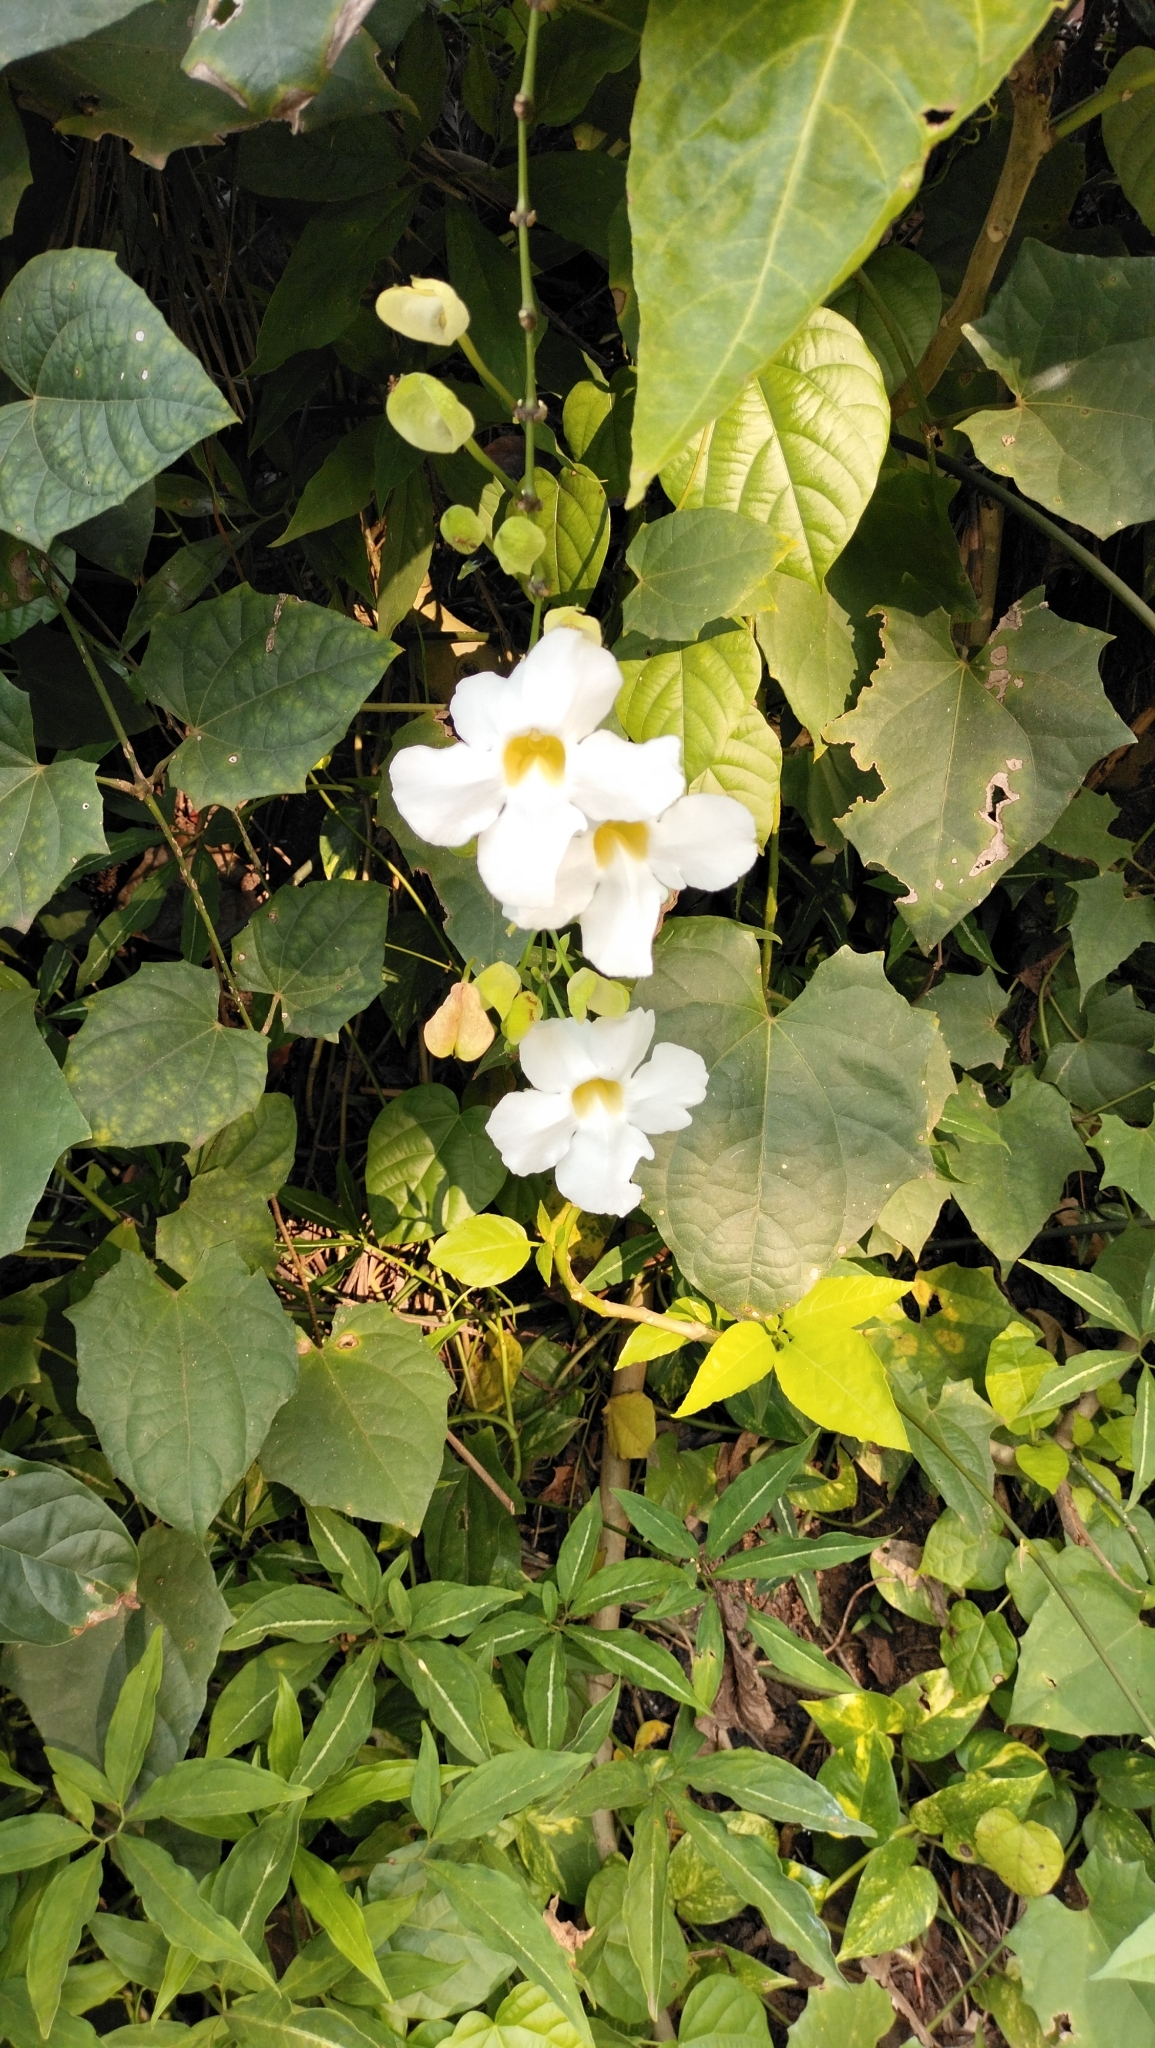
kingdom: Plantae
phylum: Tracheophyta
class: Magnoliopsida
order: Lamiales
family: Acanthaceae
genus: Thunbergia
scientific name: Thunbergia grandiflora
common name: Bengal trumpet
